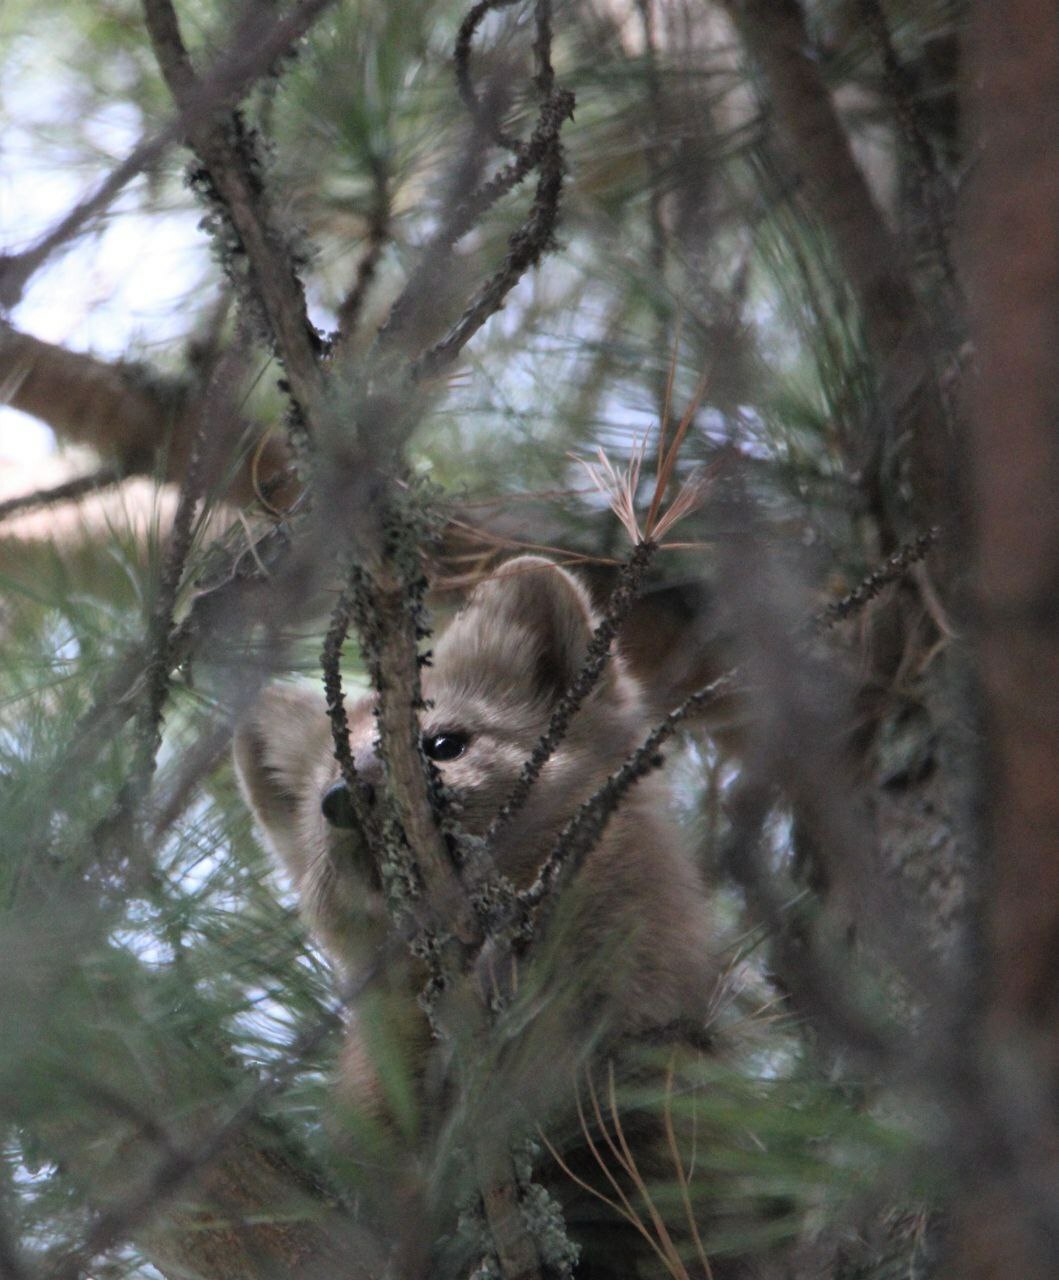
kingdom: Animalia
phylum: Chordata
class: Mammalia
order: Carnivora
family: Mustelidae
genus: Martes
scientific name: Martes zibellina
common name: Sable
